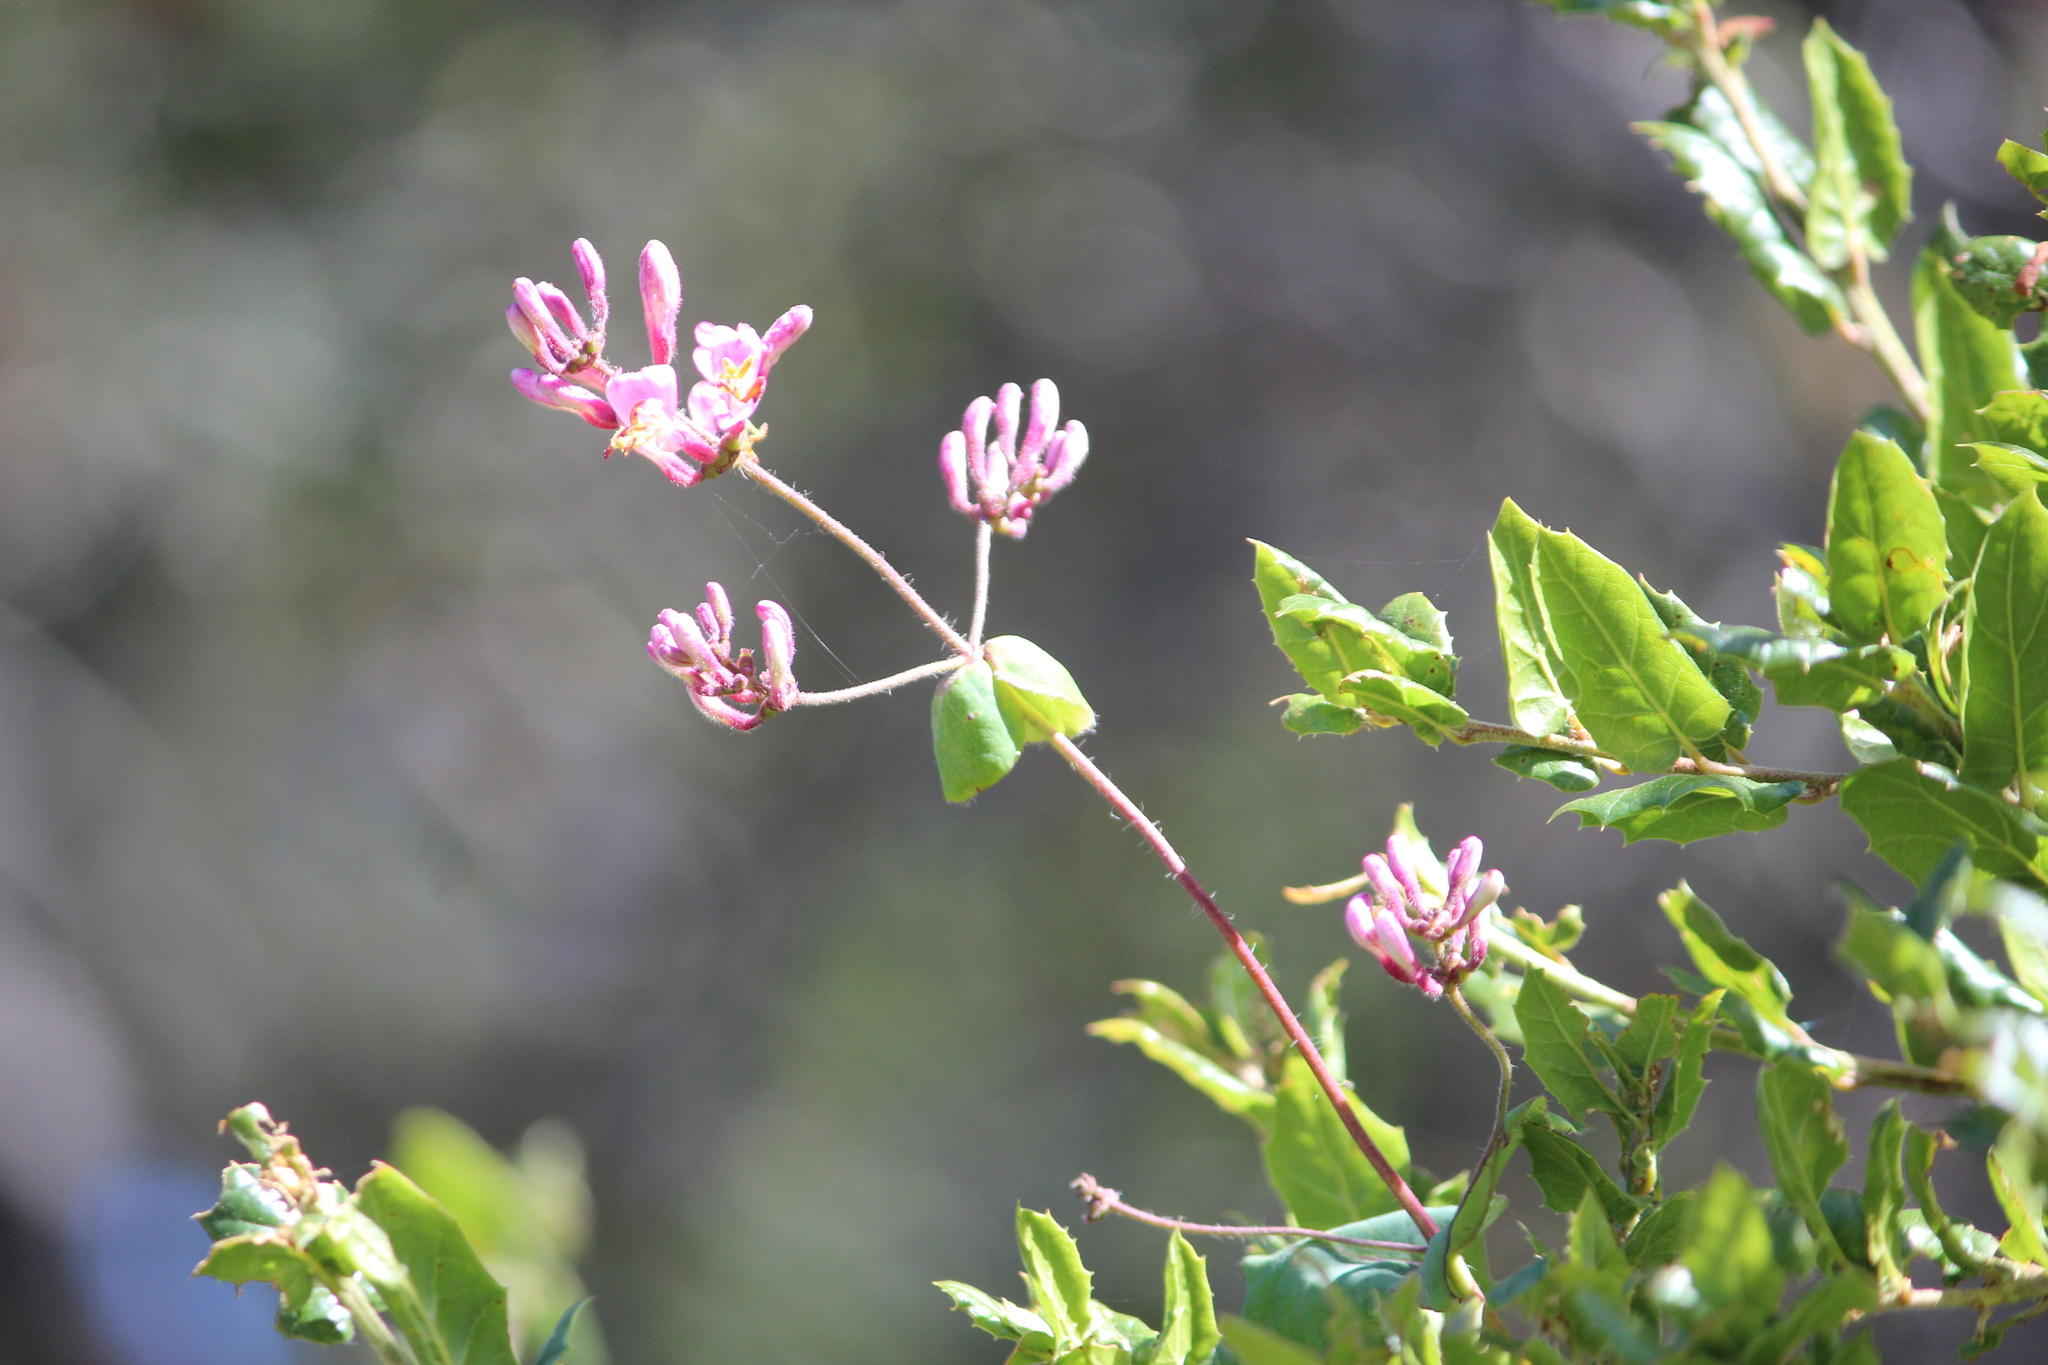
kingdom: Plantae
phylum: Tracheophyta
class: Magnoliopsida
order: Dipsacales
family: Caprifoliaceae
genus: Lonicera
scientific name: Lonicera hispidula
